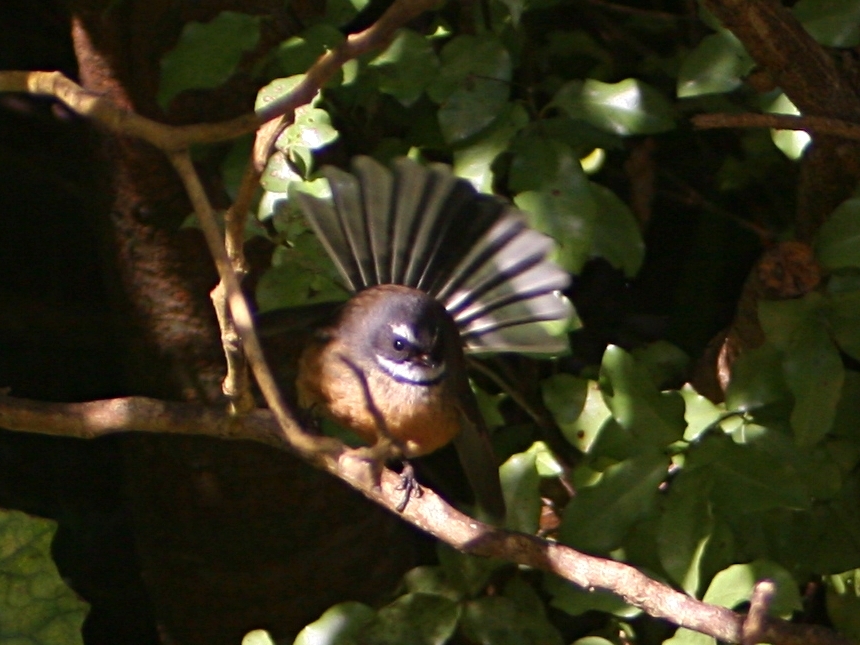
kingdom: Animalia
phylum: Chordata
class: Aves
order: Passeriformes
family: Rhipiduridae
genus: Rhipidura
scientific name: Rhipidura fuliginosa
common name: New zealand fantail
